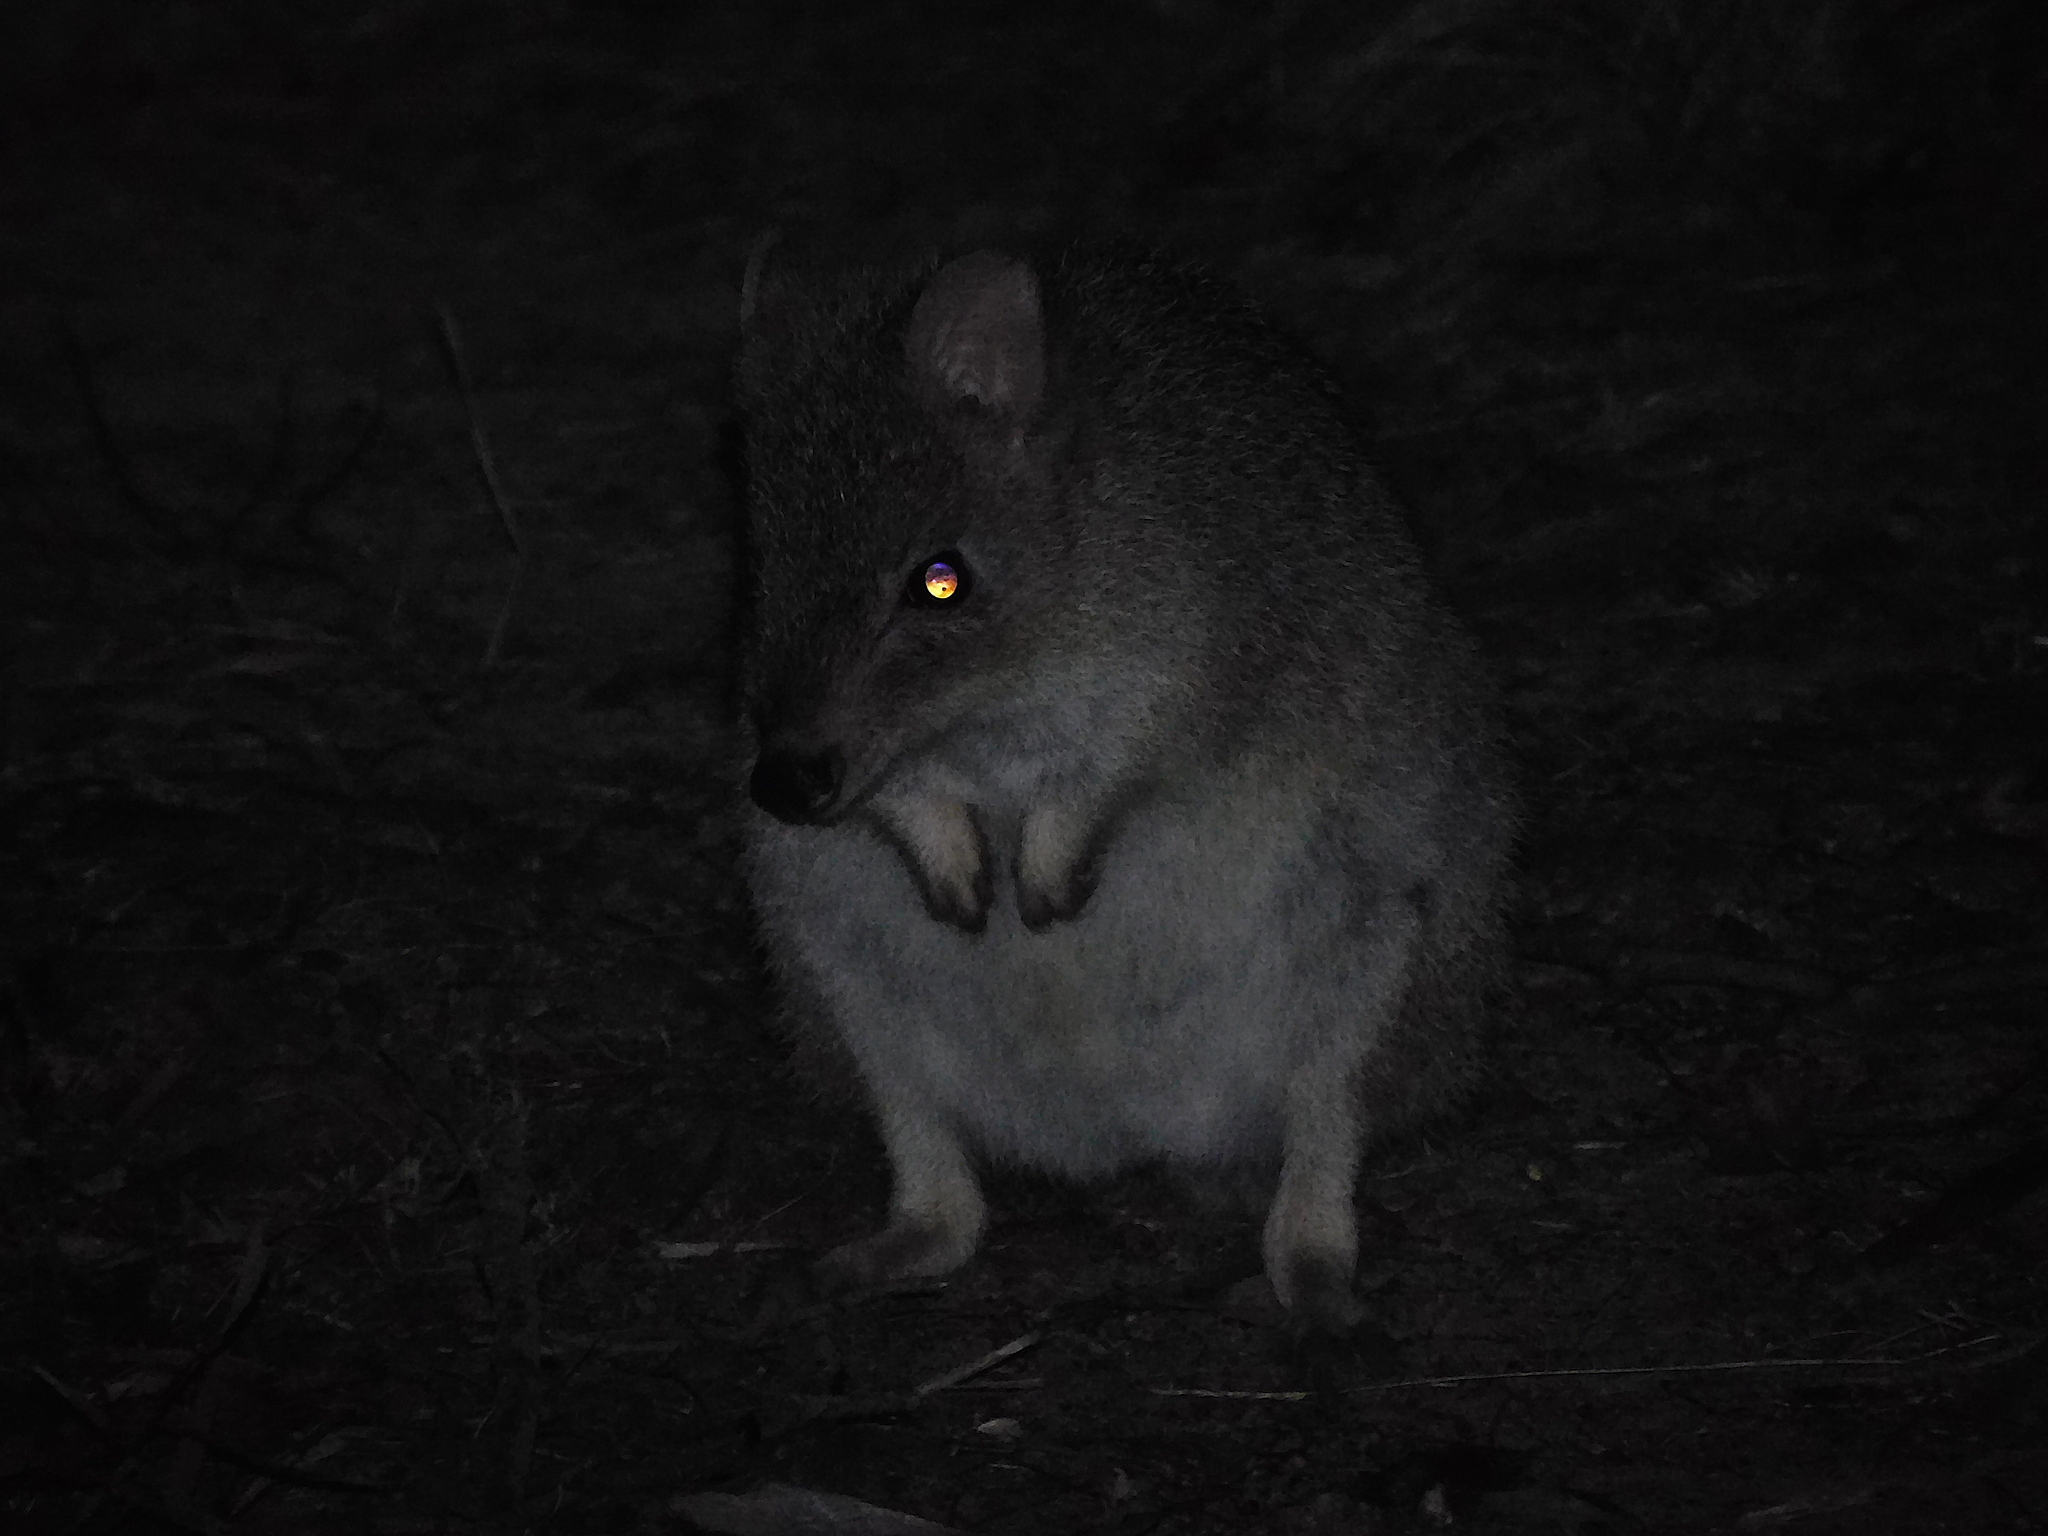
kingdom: Animalia
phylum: Chordata
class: Mammalia
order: Diprotodontia
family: Potoroidae
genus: Bettongia
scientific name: Bettongia gaimardi
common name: Eastern bettong
